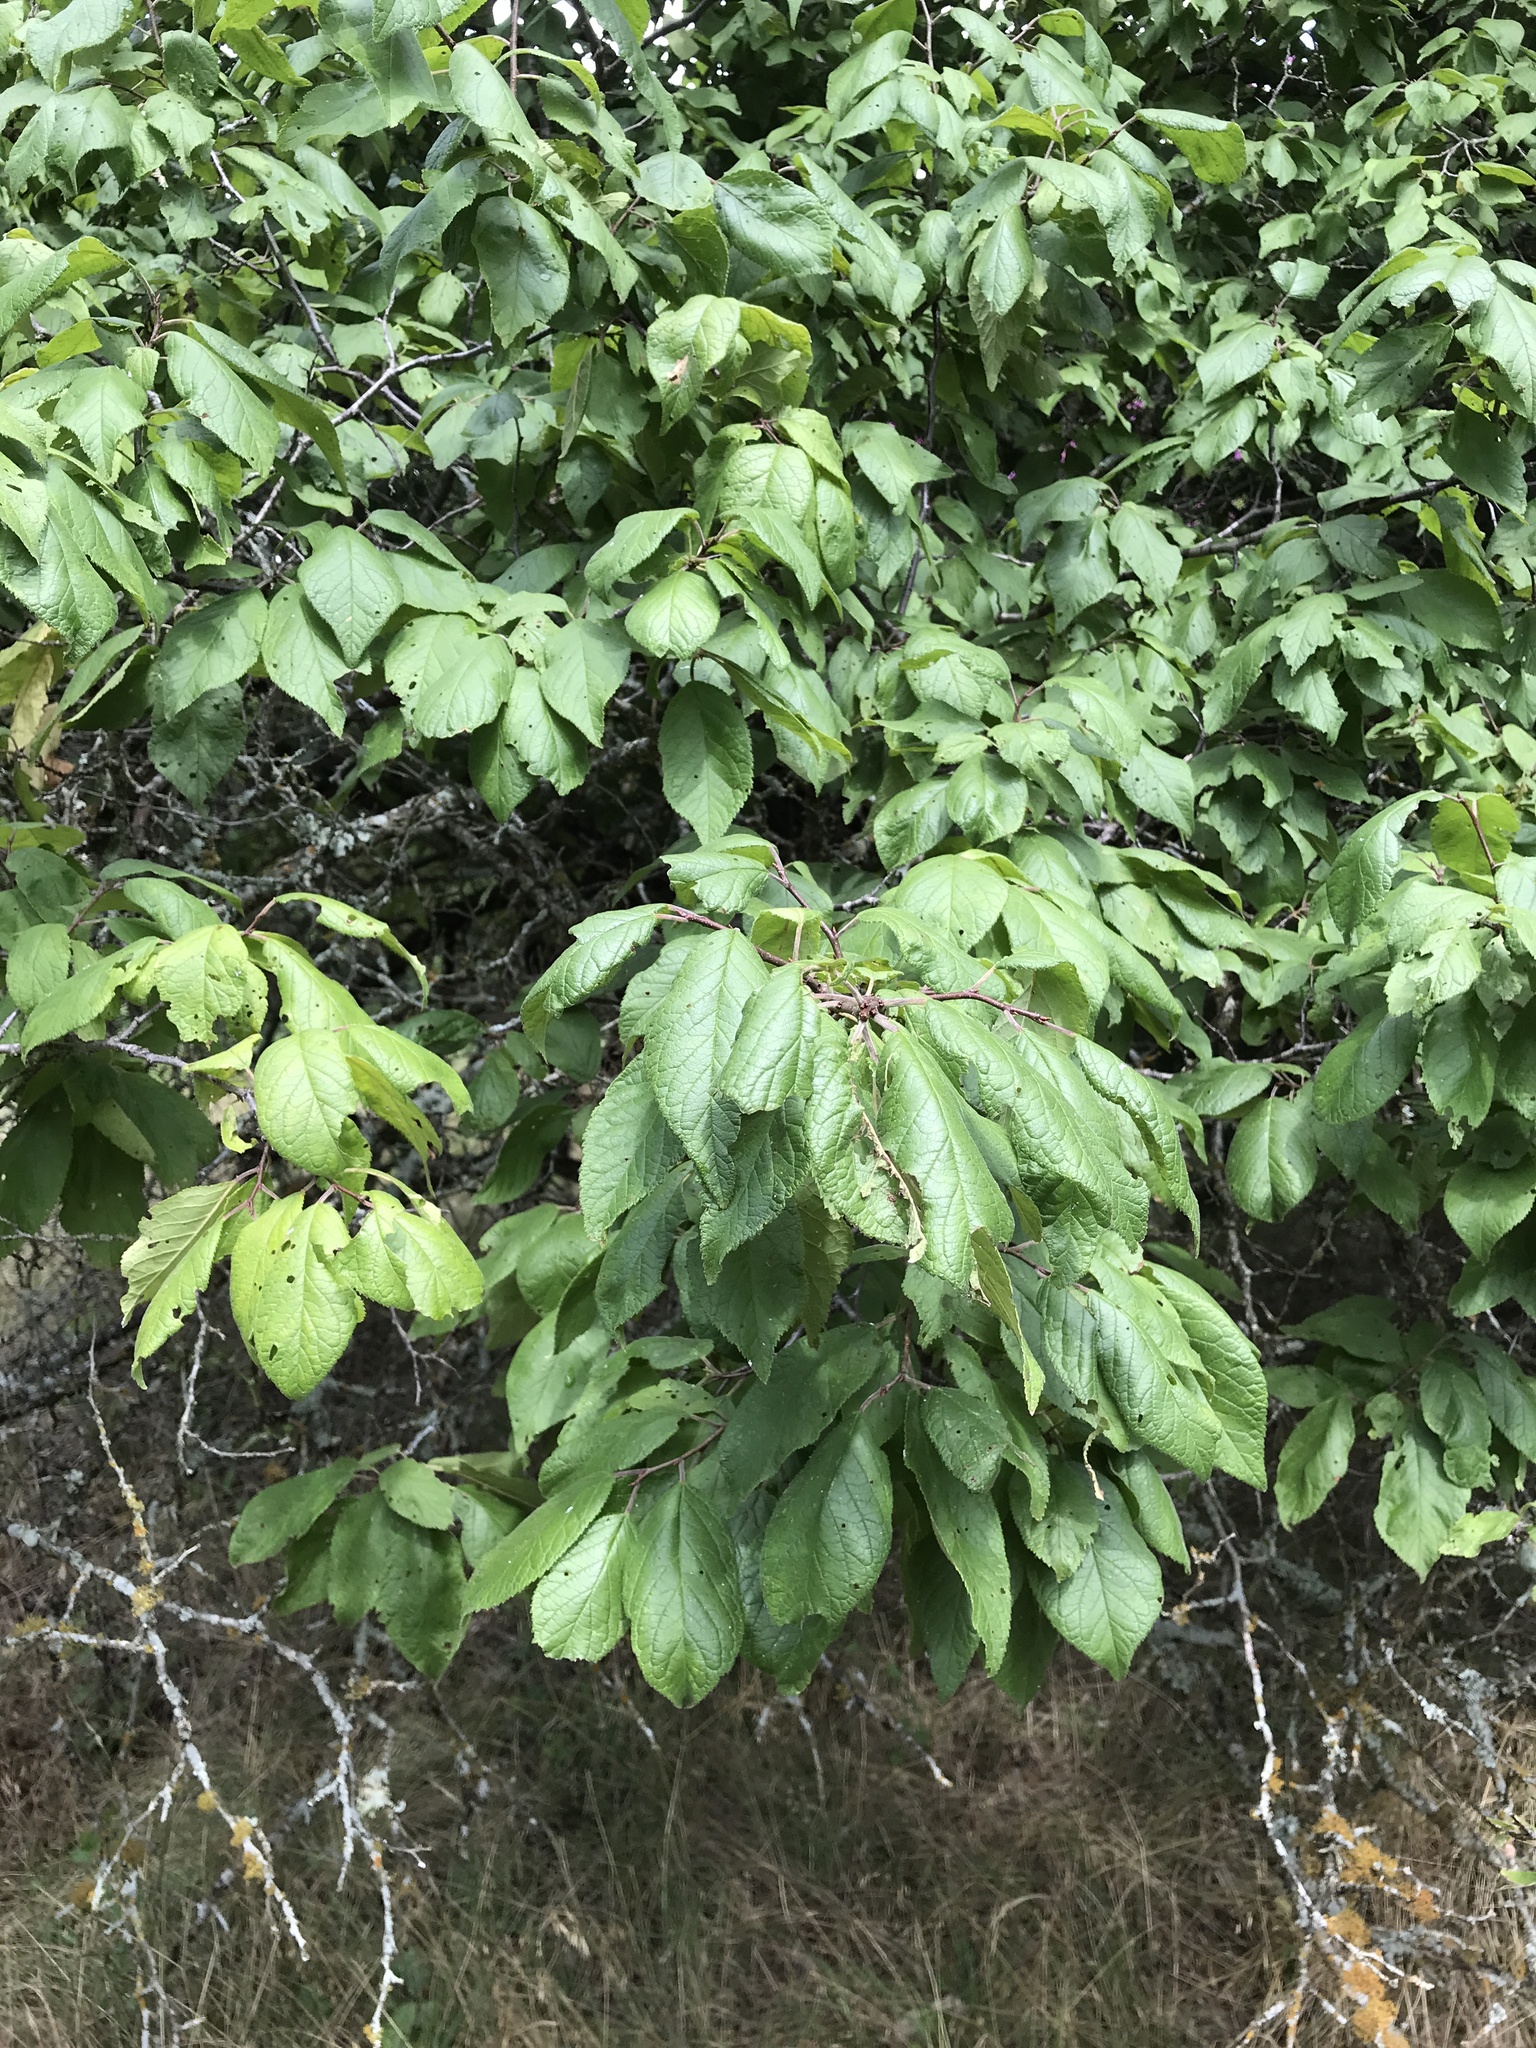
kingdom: Plantae
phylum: Tracheophyta
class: Magnoliopsida
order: Rosales
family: Rosaceae
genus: Prunus
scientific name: Prunus mexicana
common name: Mexican plum
